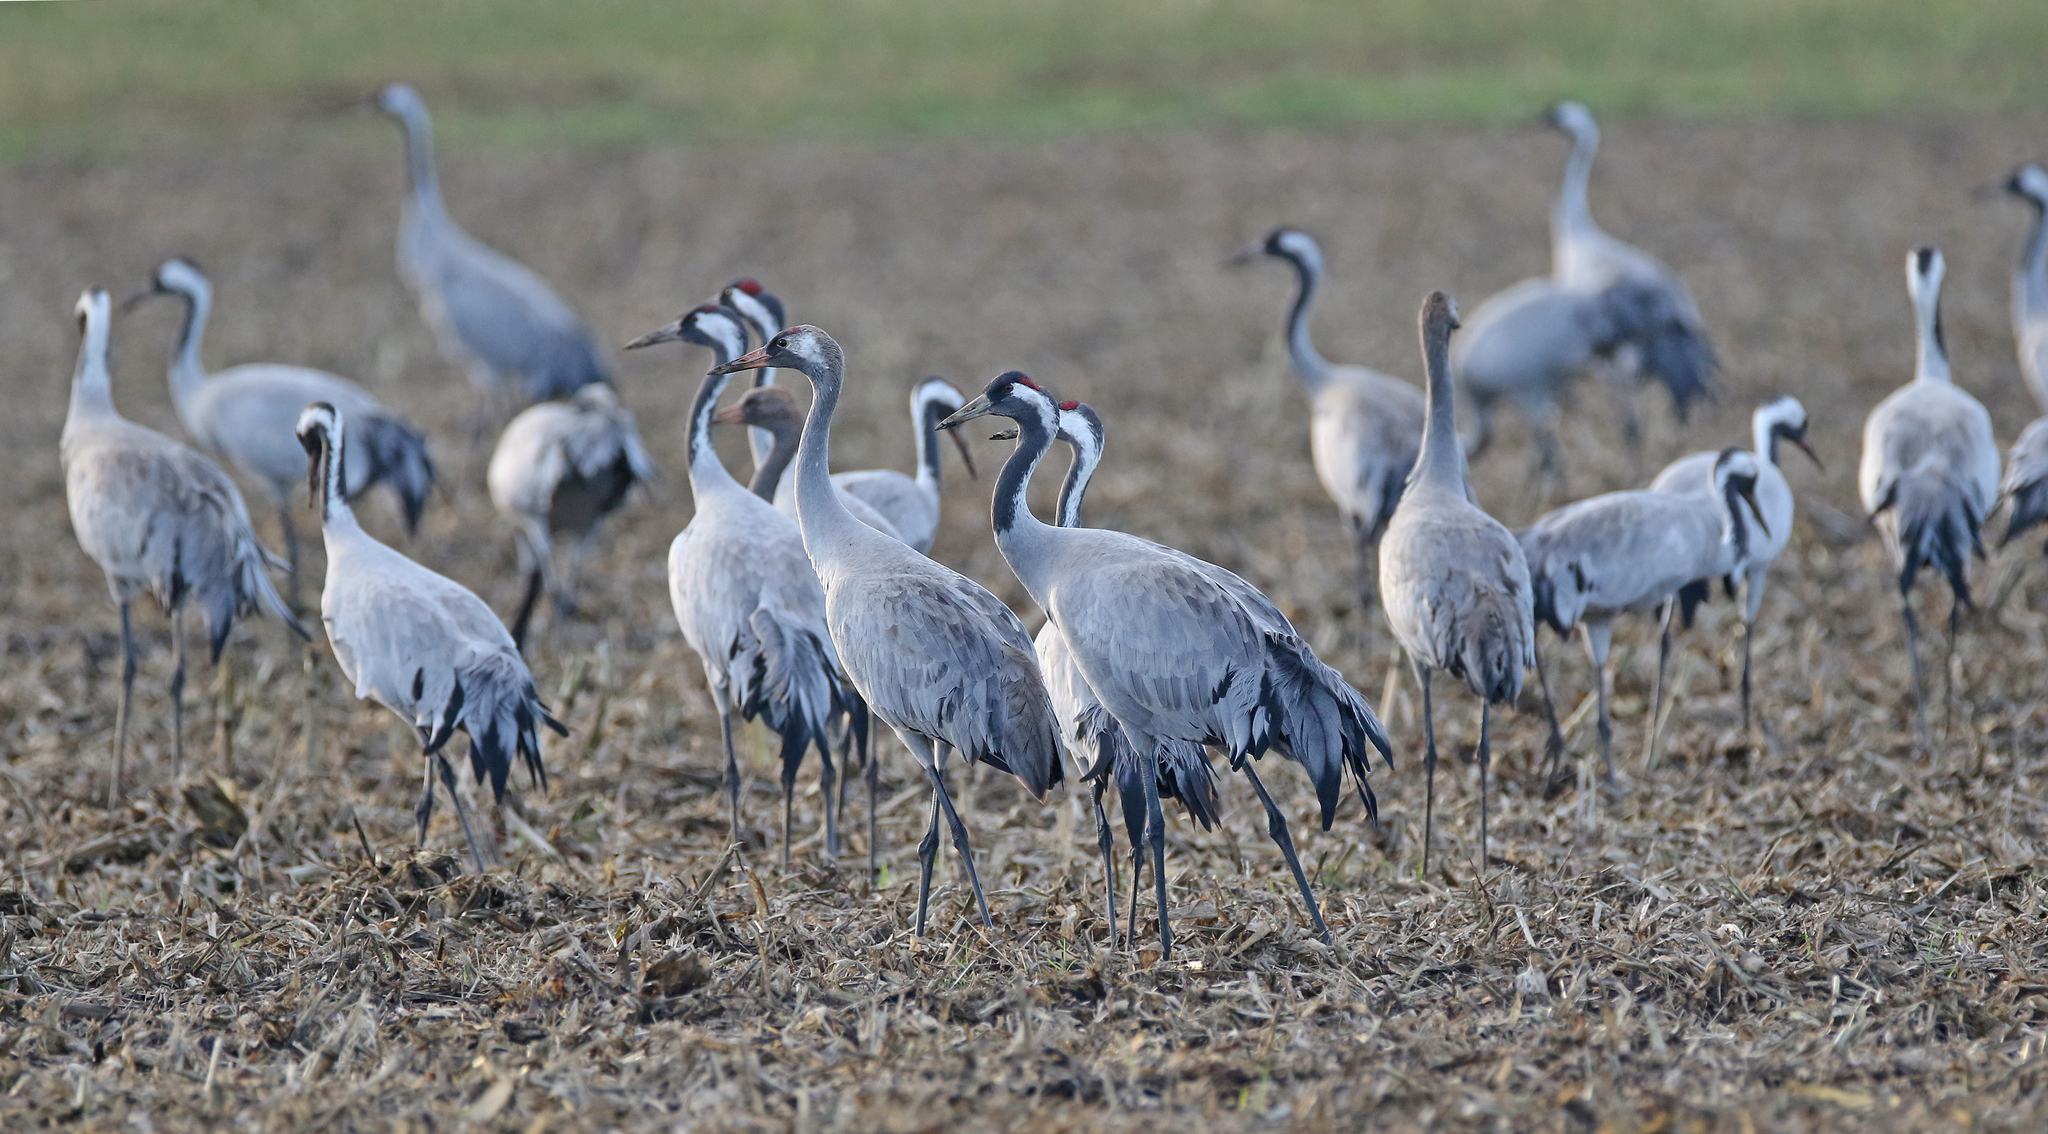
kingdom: Animalia
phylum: Chordata
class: Aves
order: Gruiformes
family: Gruidae
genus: Grus
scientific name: Grus grus
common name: Common crane
